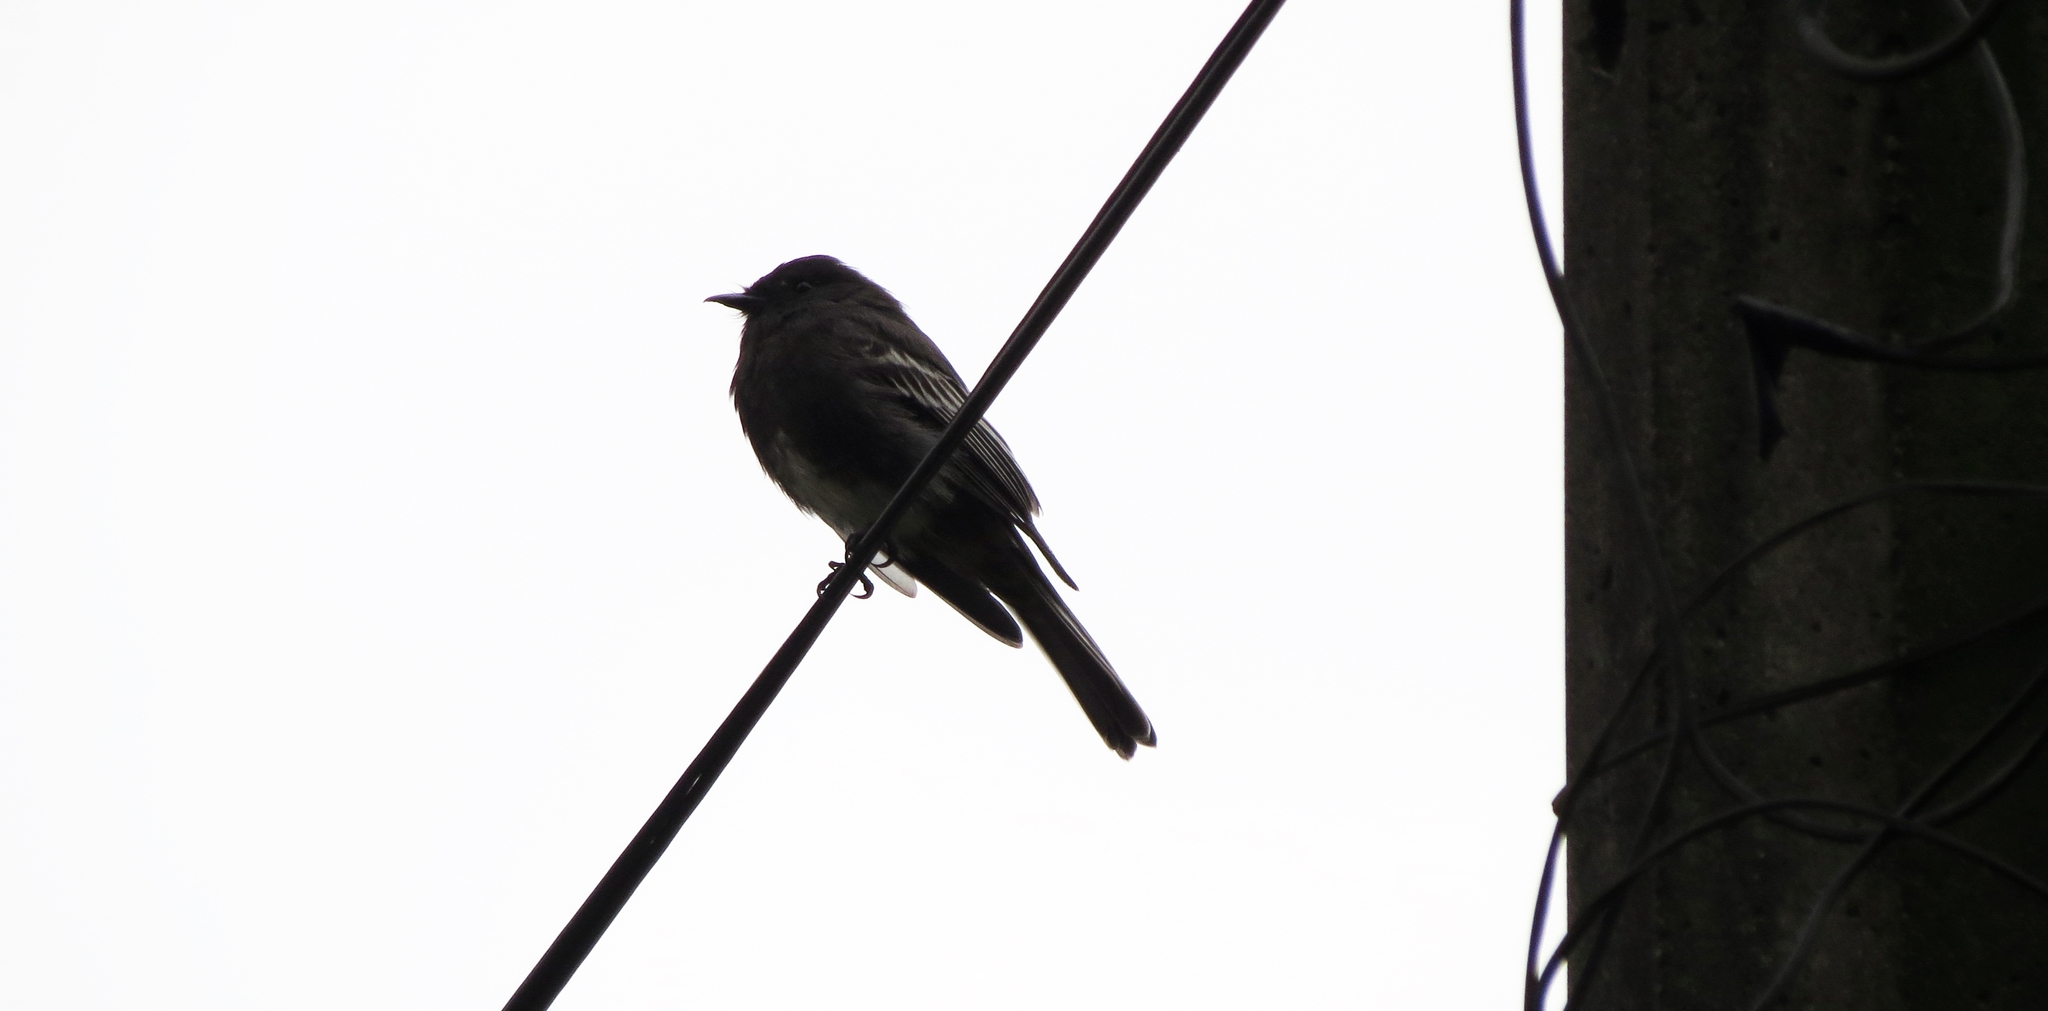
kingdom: Animalia
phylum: Chordata
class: Aves
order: Passeriformes
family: Tyrannidae
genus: Sayornis
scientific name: Sayornis nigricans
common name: Black phoebe
